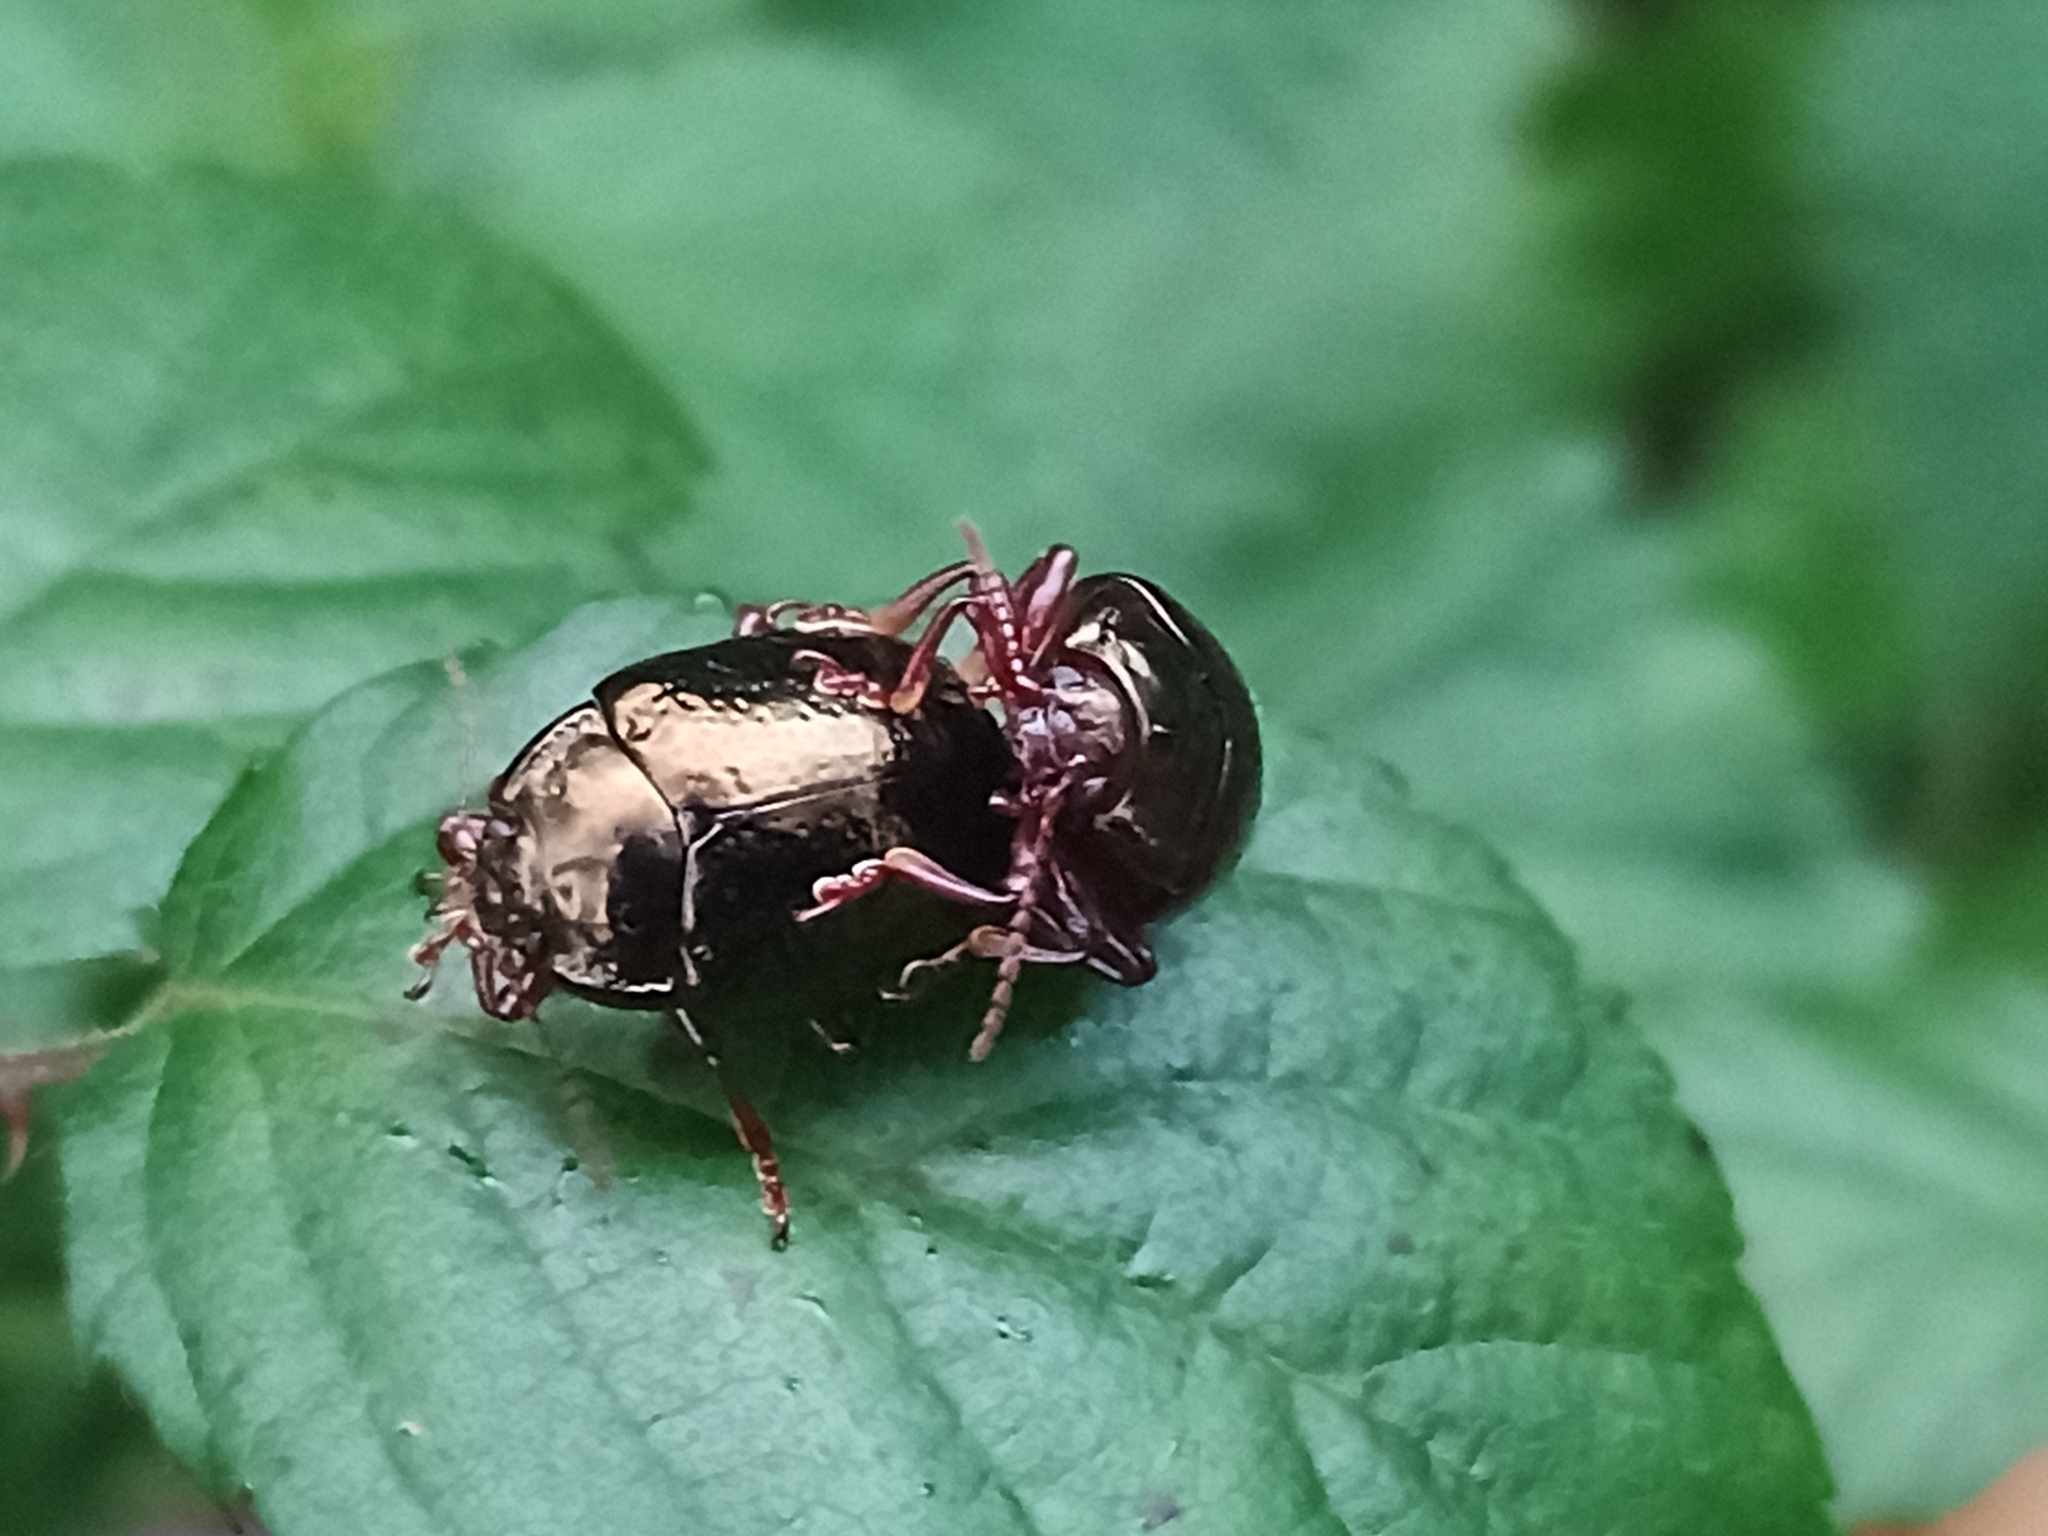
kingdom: Animalia
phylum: Arthropoda
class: Insecta
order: Coleoptera
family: Chrysomelidae
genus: Chrysolina
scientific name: Chrysolina bankii
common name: Leaf beetle
